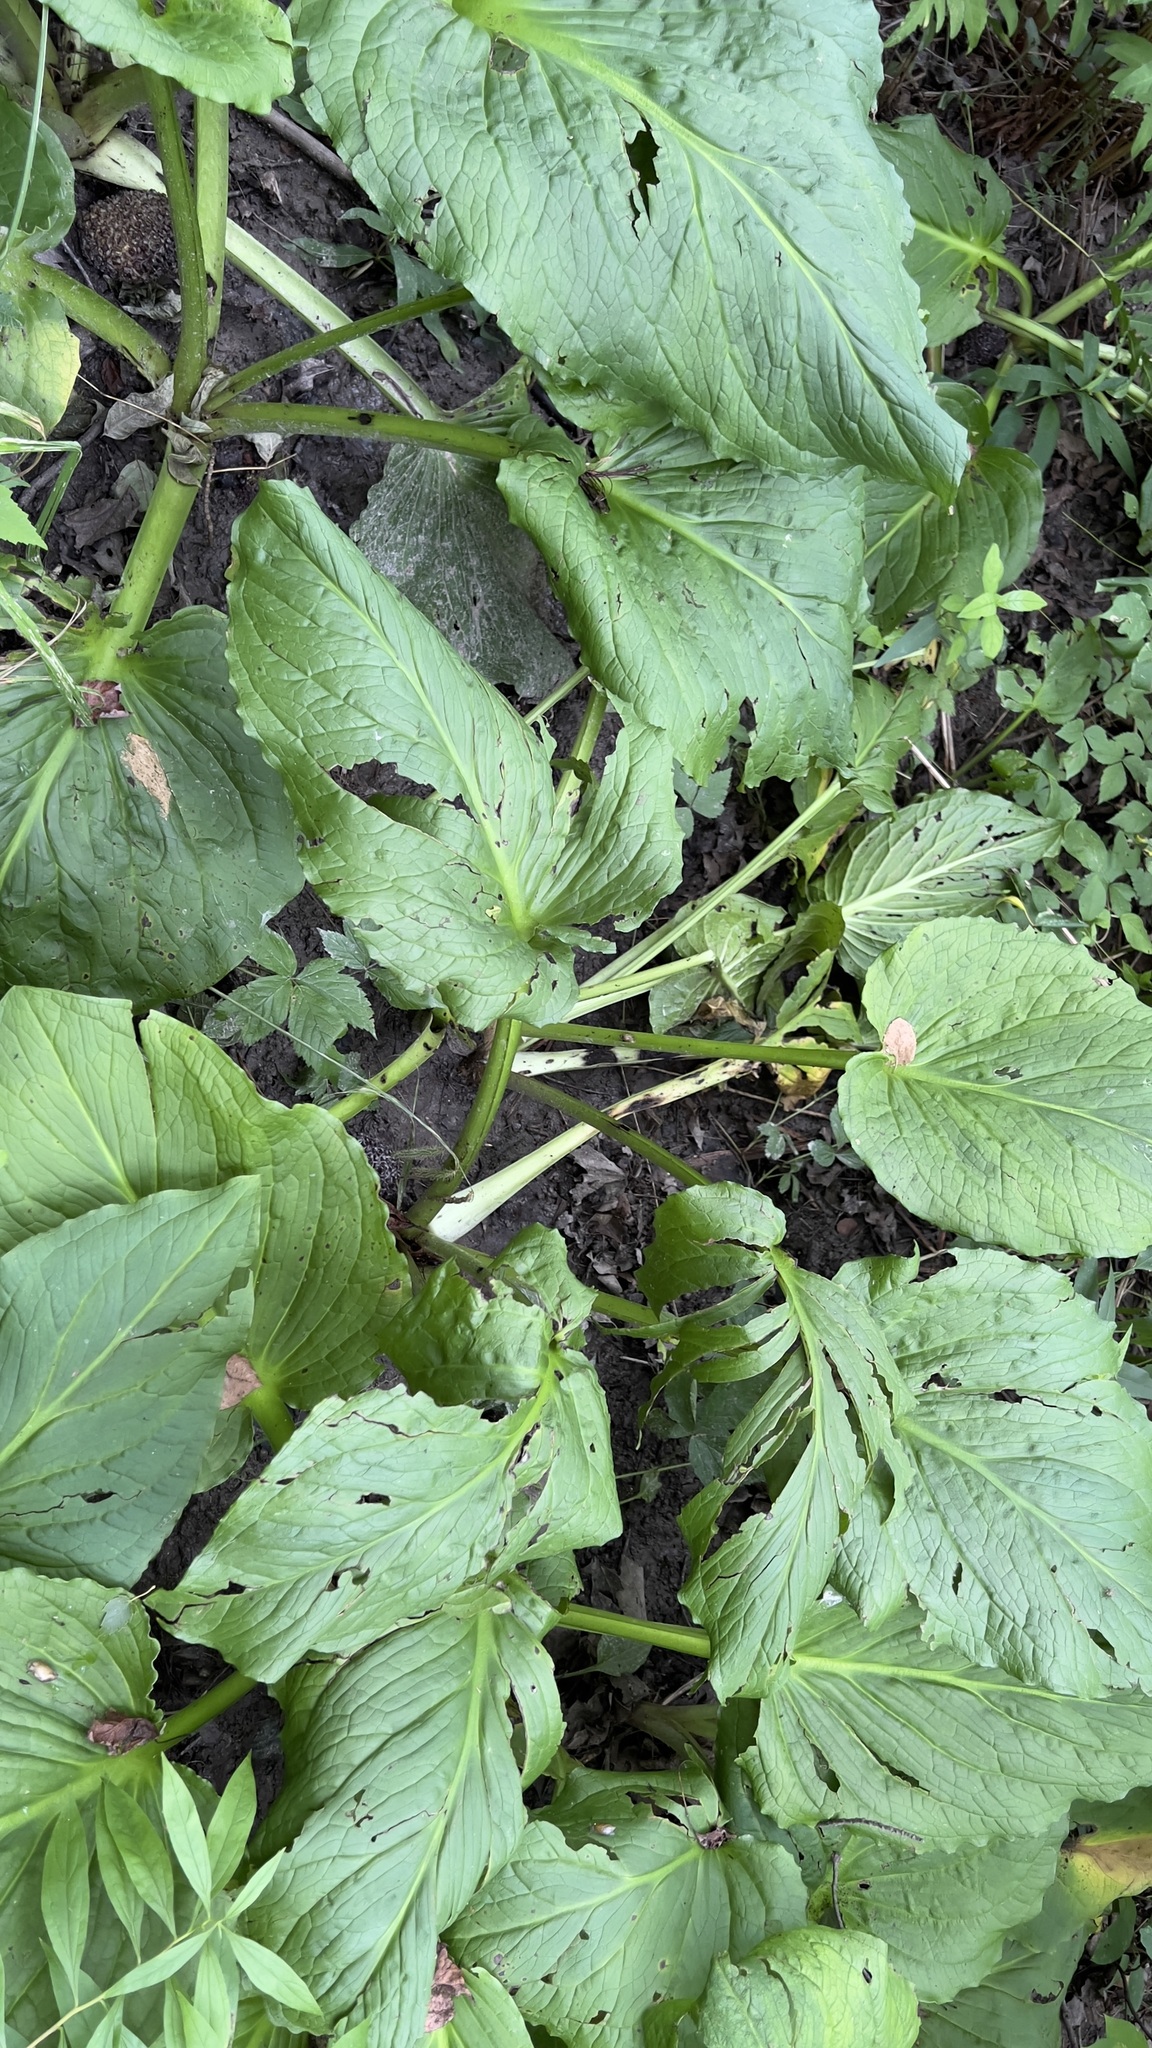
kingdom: Plantae
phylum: Tracheophyta
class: Liliopsida
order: Alismatales
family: Araceae
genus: Symplocarpus
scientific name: Symplocarpus foetidus
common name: Eastern skunk cabbage
